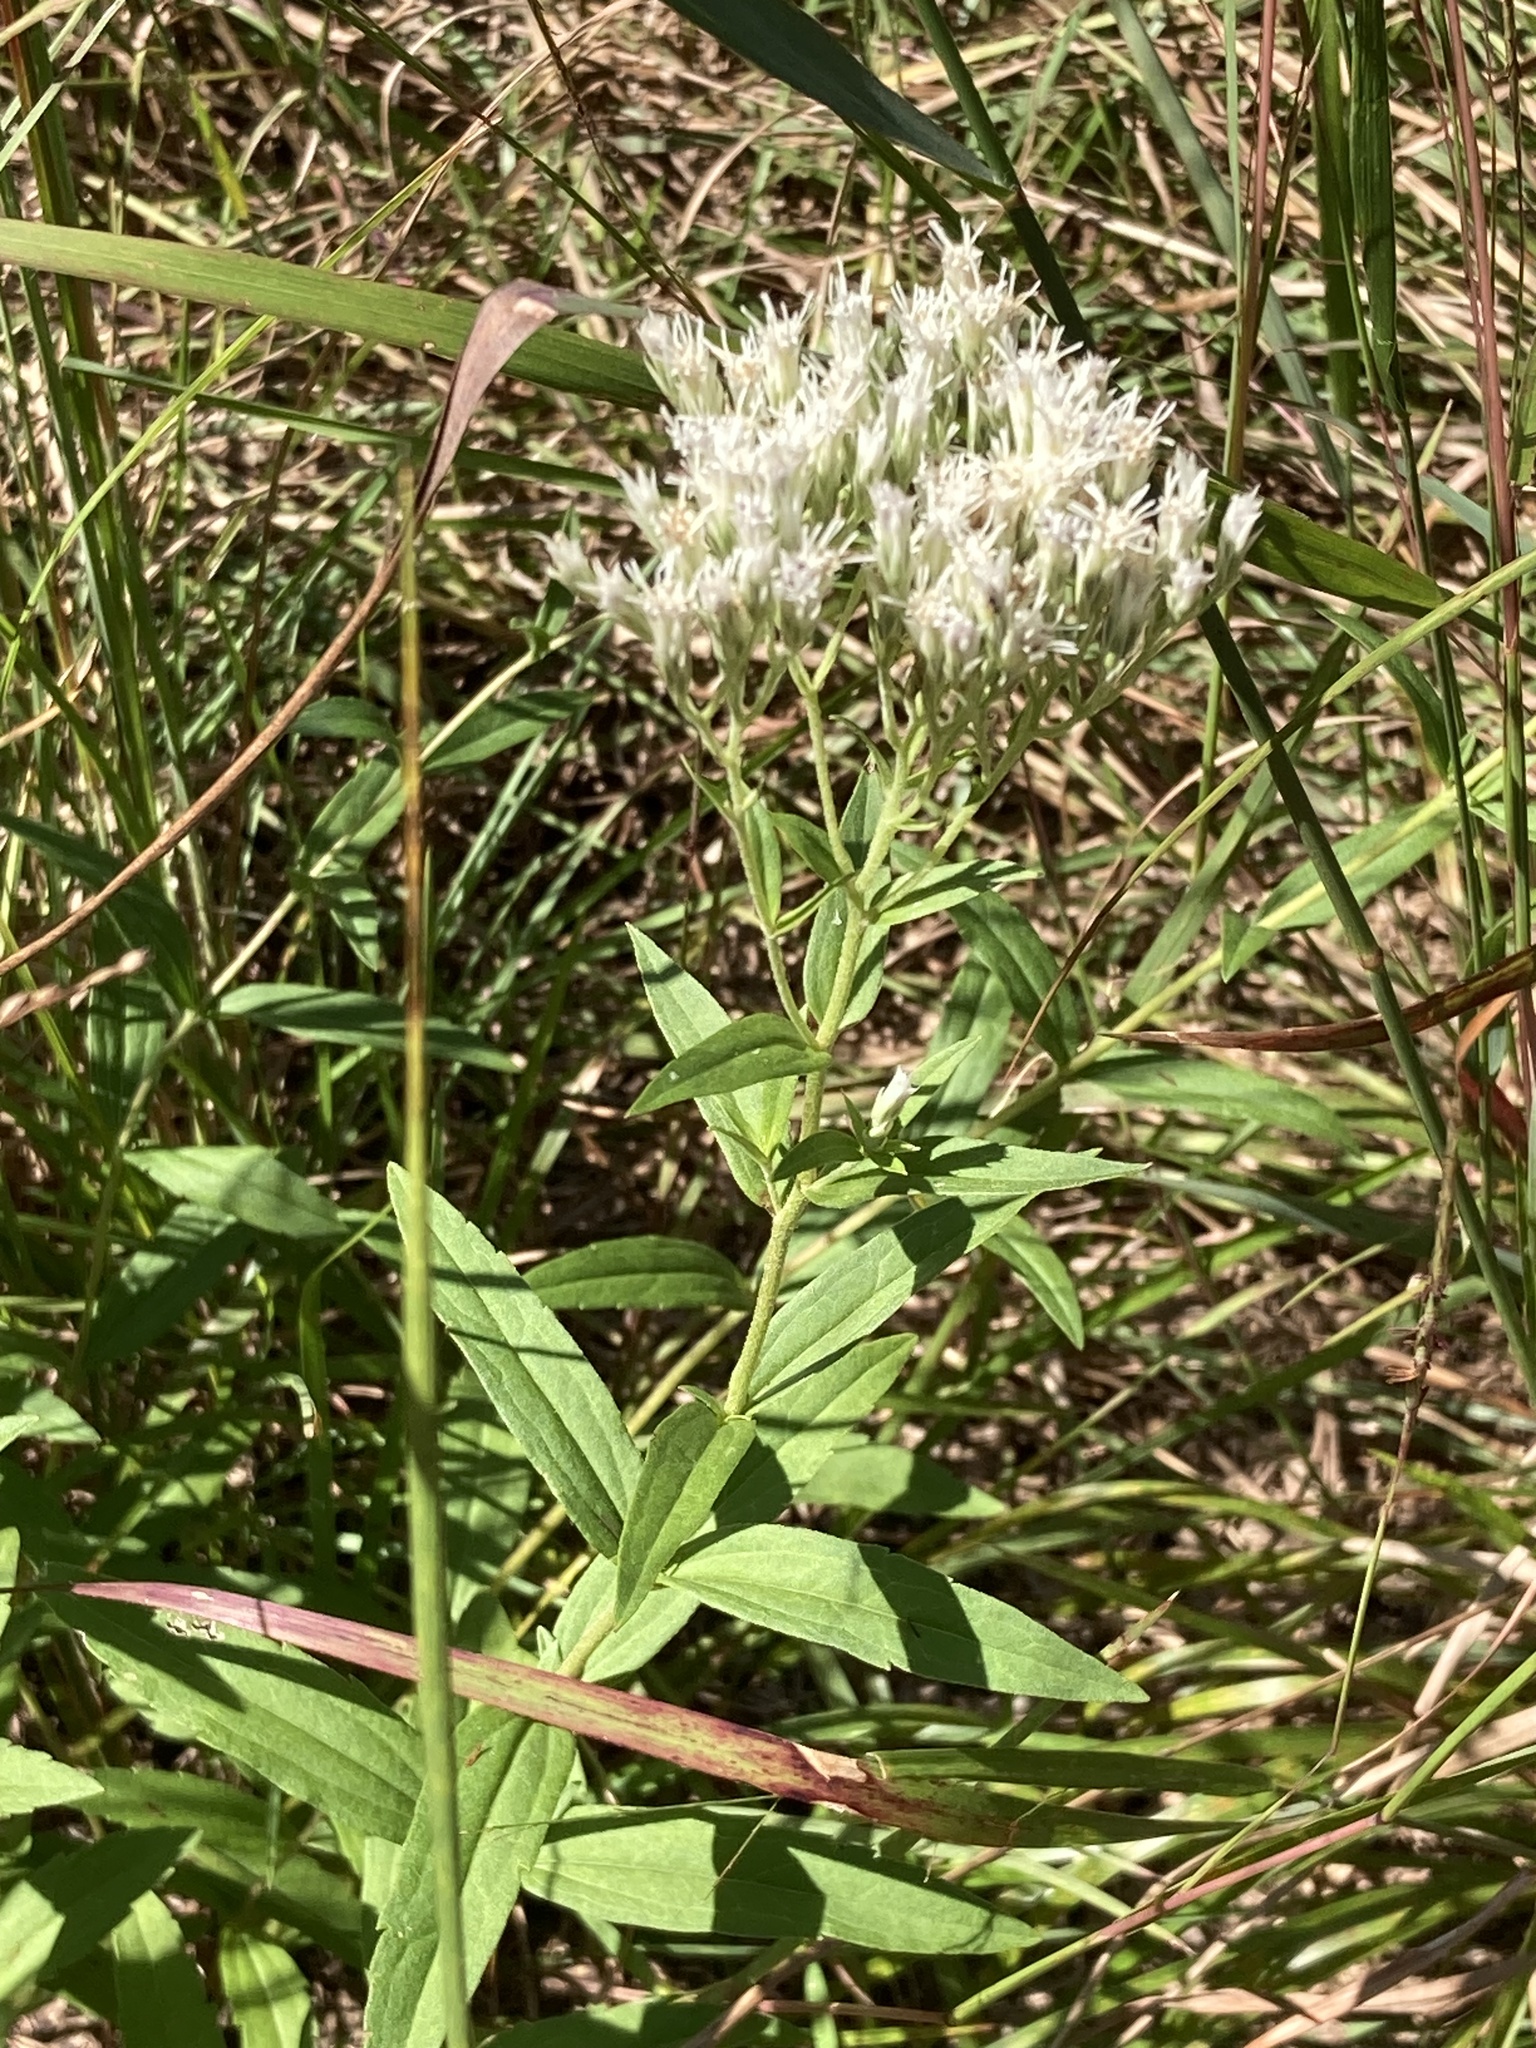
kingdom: Plantae
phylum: Tracheophyta
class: Magnoliopsida
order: Asterales
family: Asteraceae
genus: Eupatorium
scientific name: Eupatorium subvenosum
